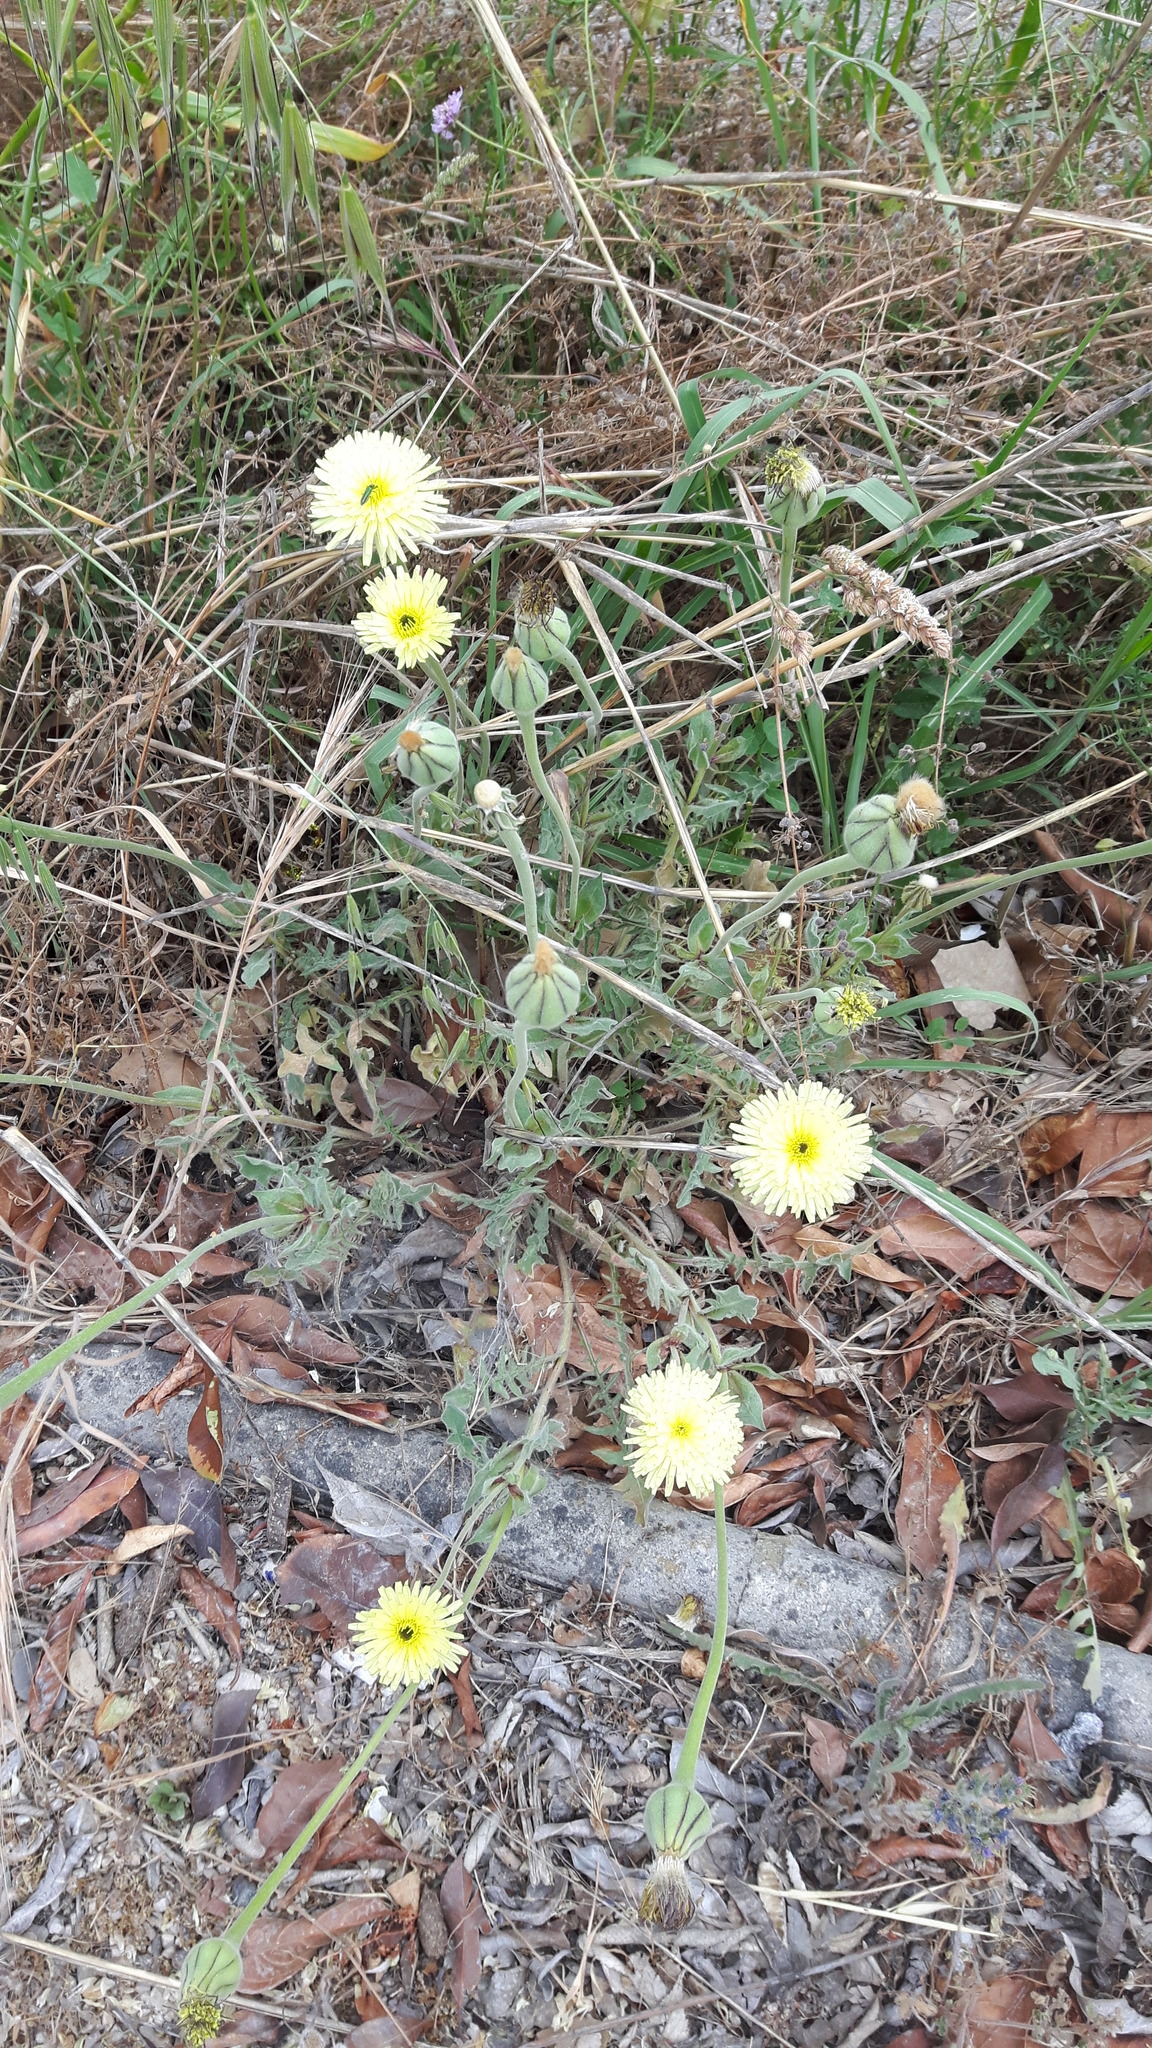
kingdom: Plantae
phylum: Tracheophyta
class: Magnoliopsida
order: Asterales
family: Asteraceae
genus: Urospermum
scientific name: Urospermum dalechampii
